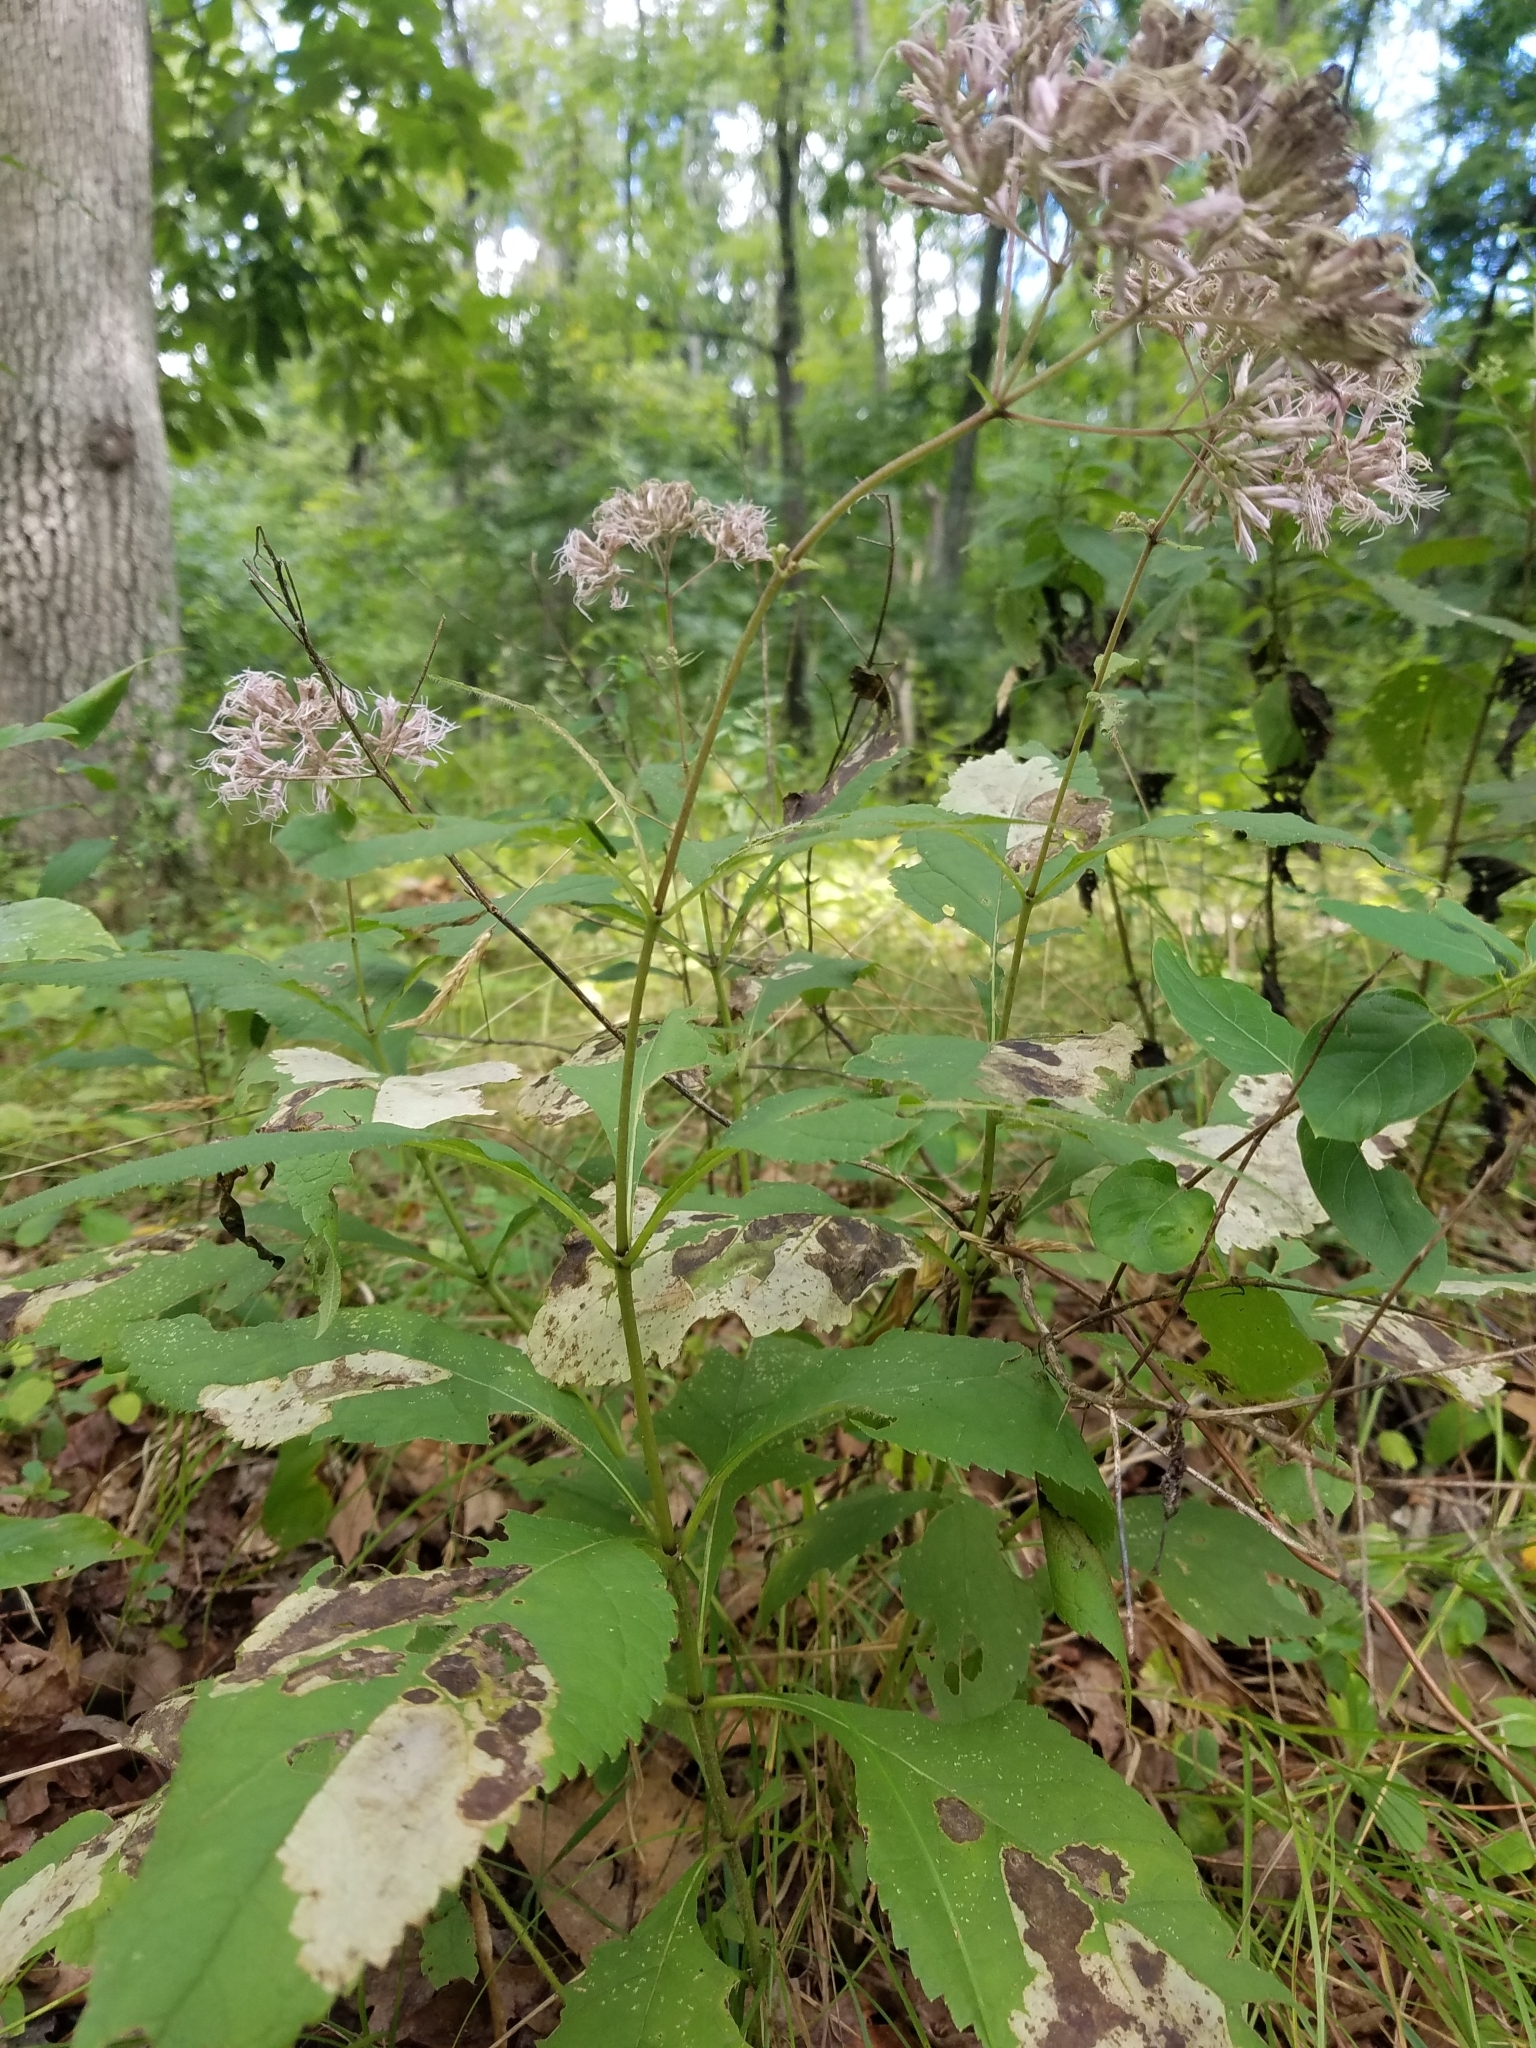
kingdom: Plantae
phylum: Tracheophyta
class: Magnoliopsida
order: Asterales
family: Asteraceae
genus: Eutrochium
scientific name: Eutrochium purpureum
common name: Gravelroot
